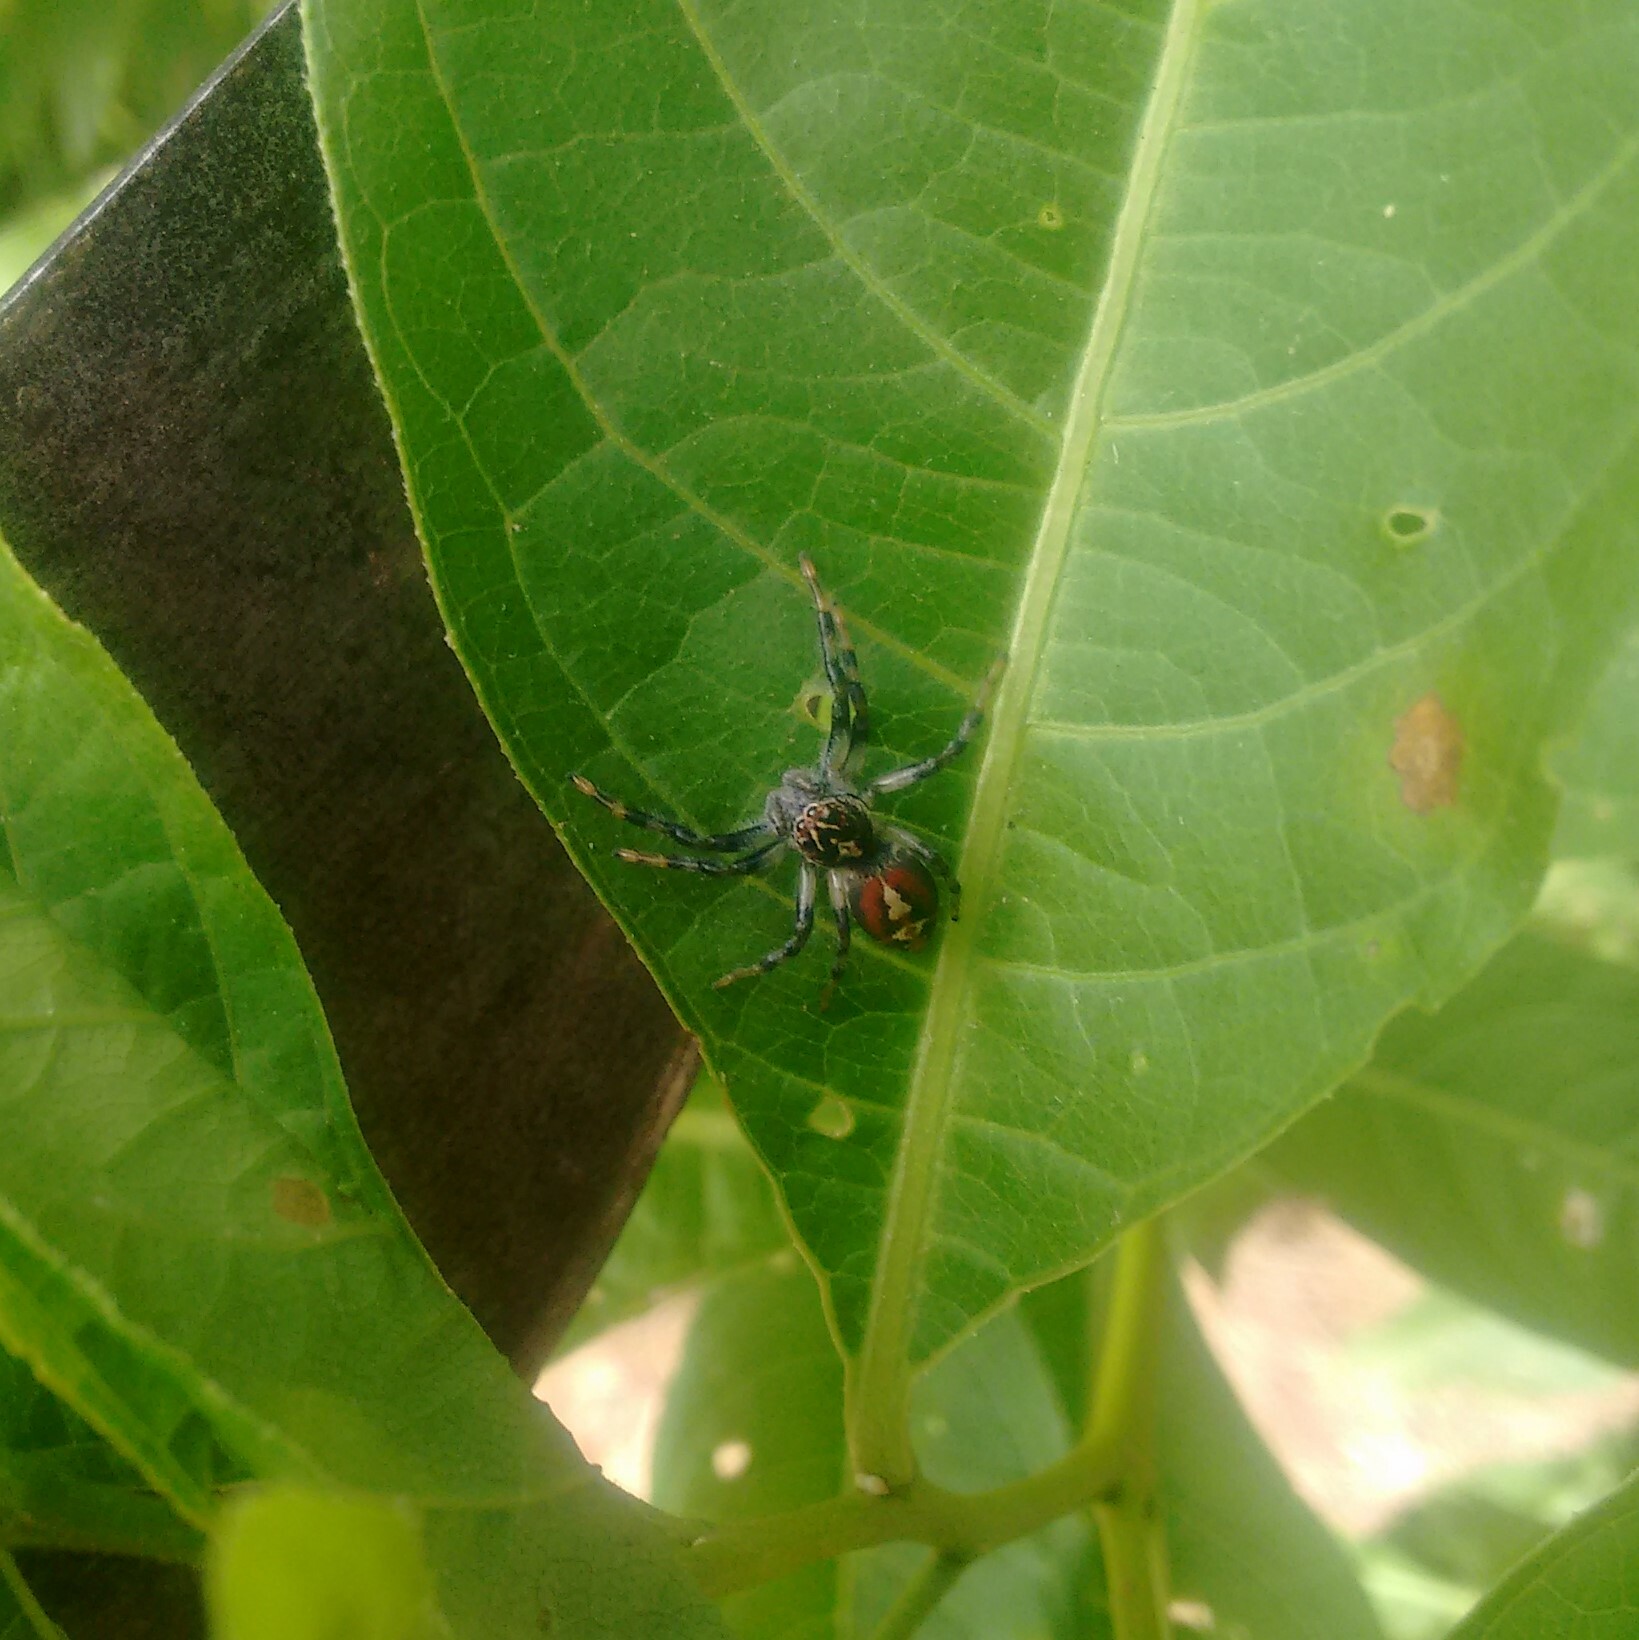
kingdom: Animalia
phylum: Arthropoda
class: Arachnida
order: Araneae
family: Salticidae
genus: Frigga
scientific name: Frigga quintensis
